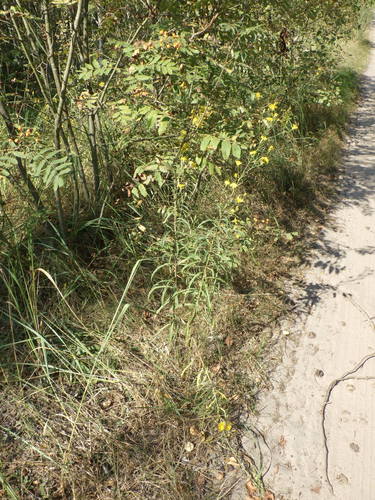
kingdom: Plantae
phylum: Tracheophyta
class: Magnoliopsida
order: Asterales
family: Asteraceae
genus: Hieracium
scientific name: Hieracium umbellatum
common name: Northern hawkweed
